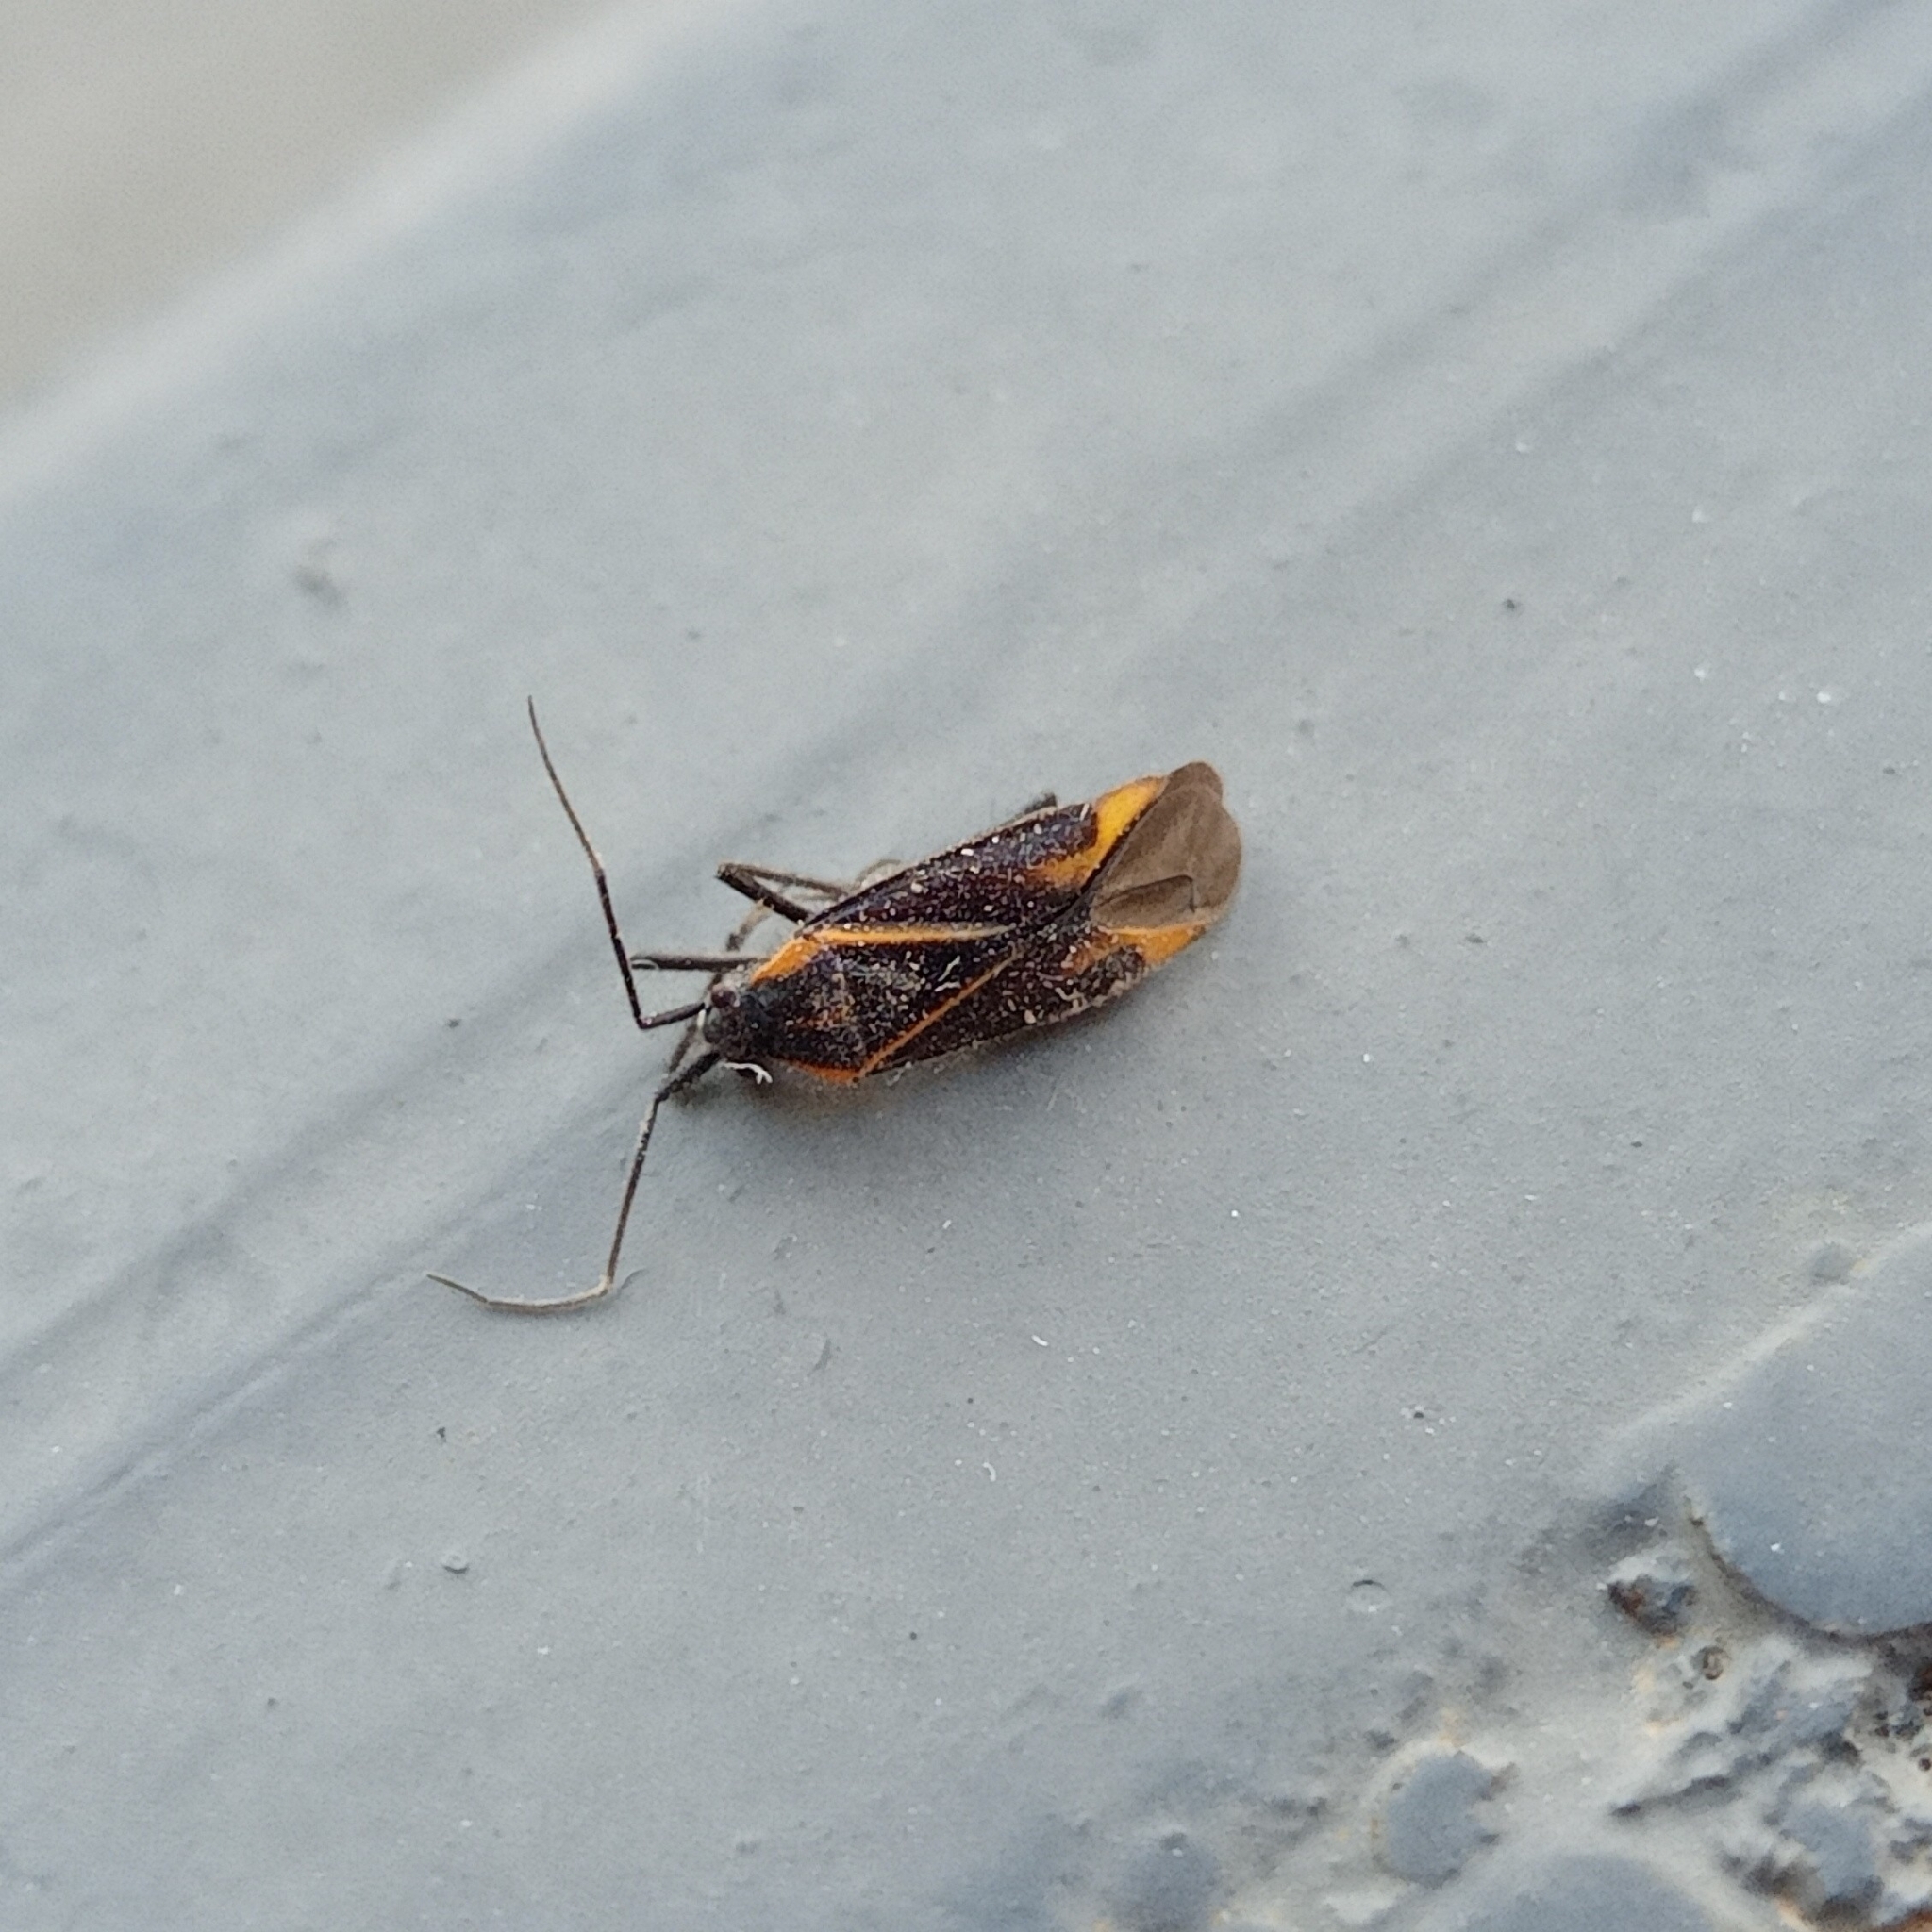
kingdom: Animalia
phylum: Arthropoda
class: Insecta
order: Hemiptera
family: Miridae
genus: Horistus
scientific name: Horistus infuscatus
